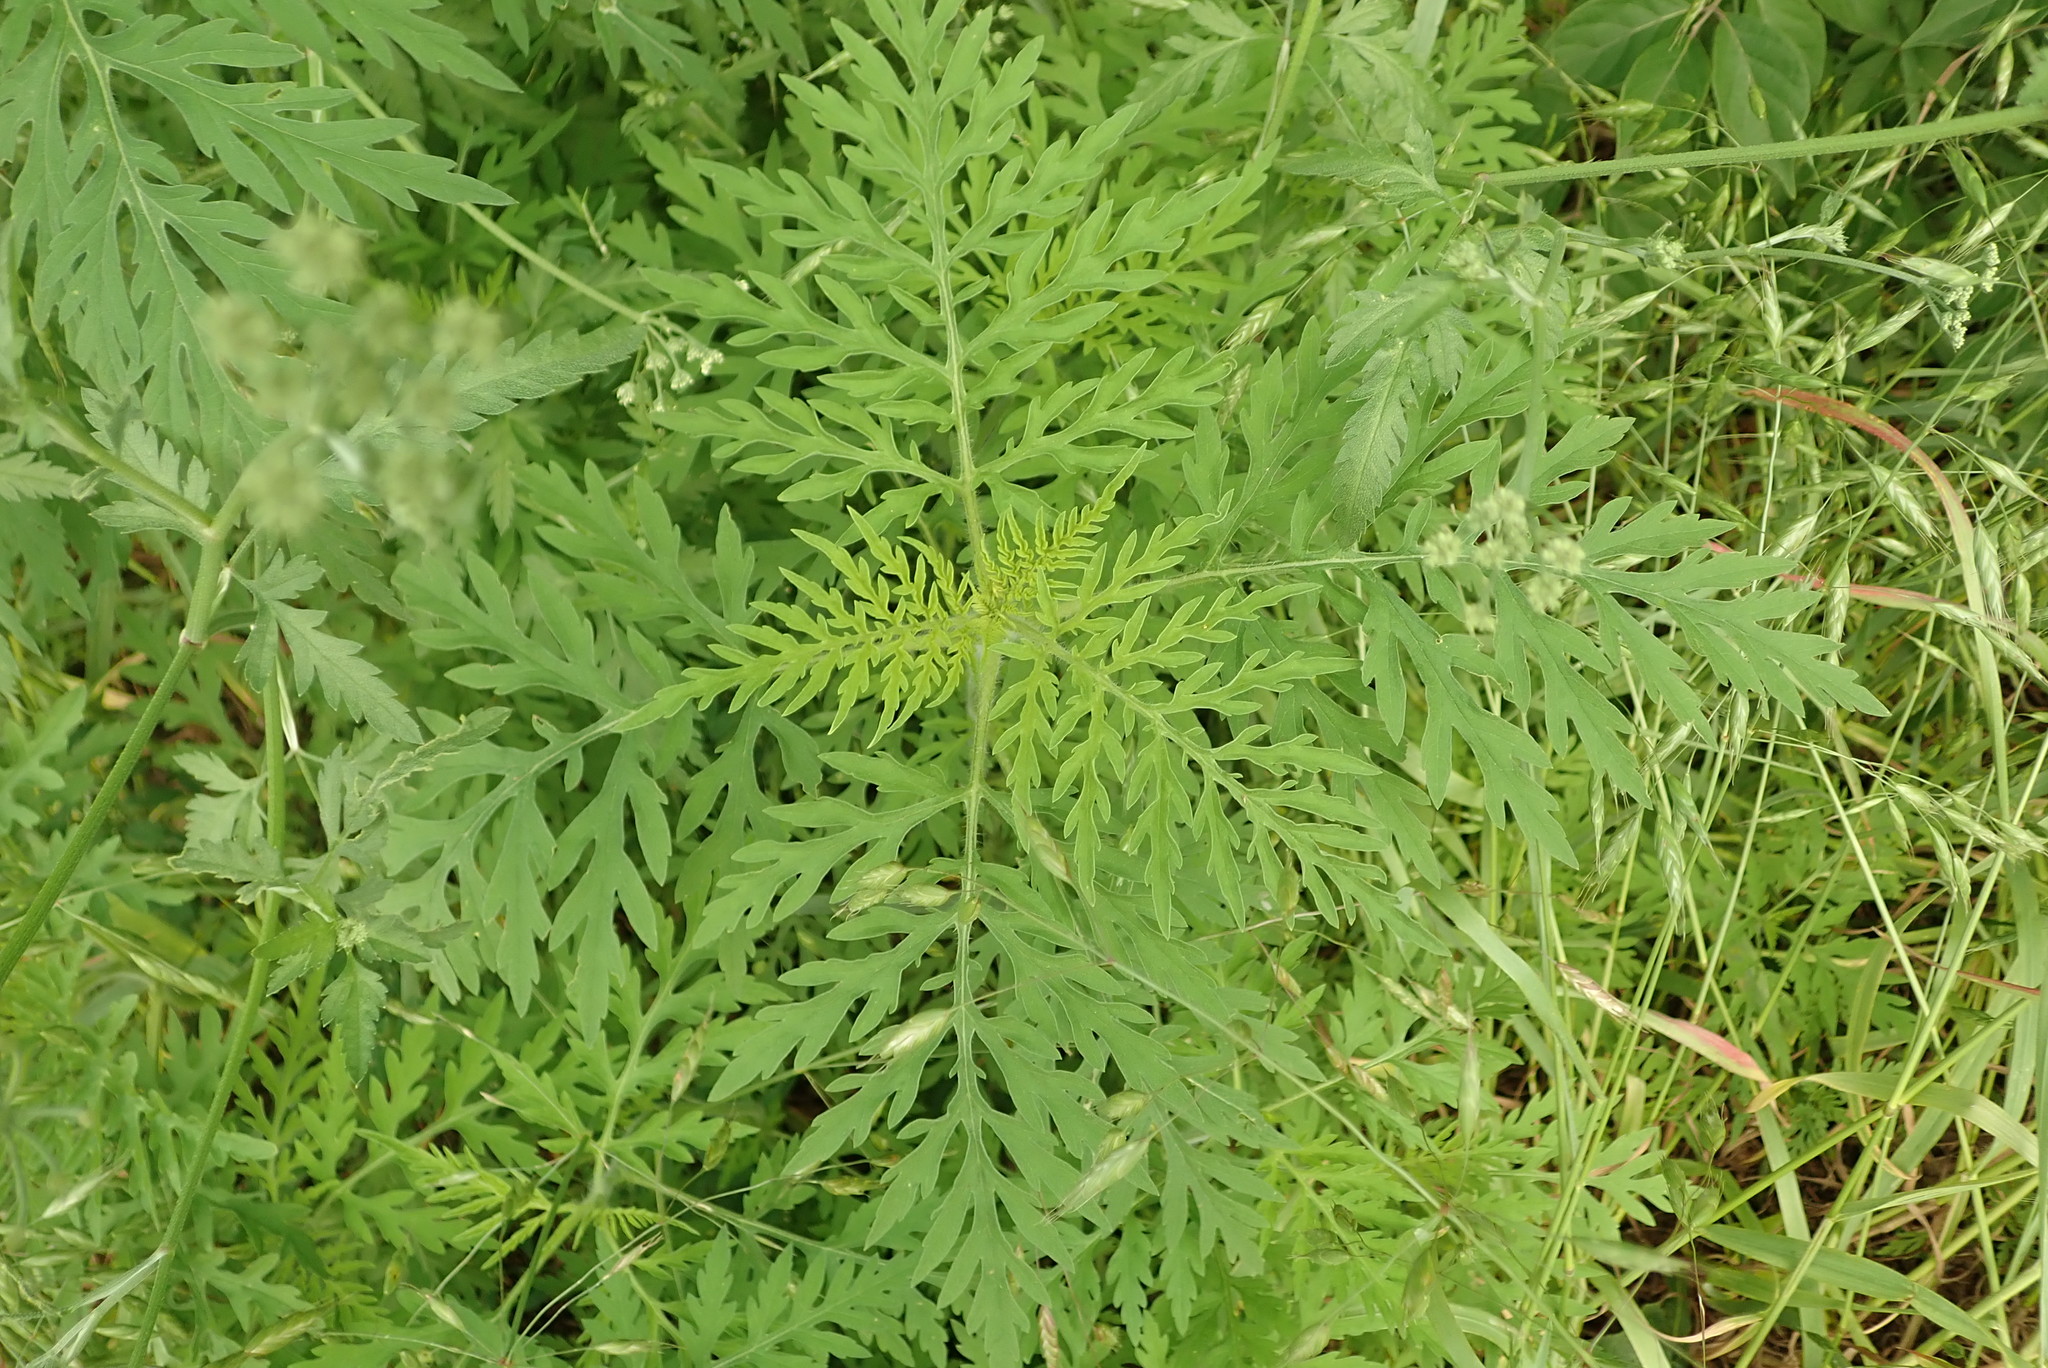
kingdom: Plantae
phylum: Tracheophyta
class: Magnoliopsida
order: Asterales
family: Asteraceae
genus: Ambrosia
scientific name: Ambrosia artemisiifolia
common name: Annual ragweed
